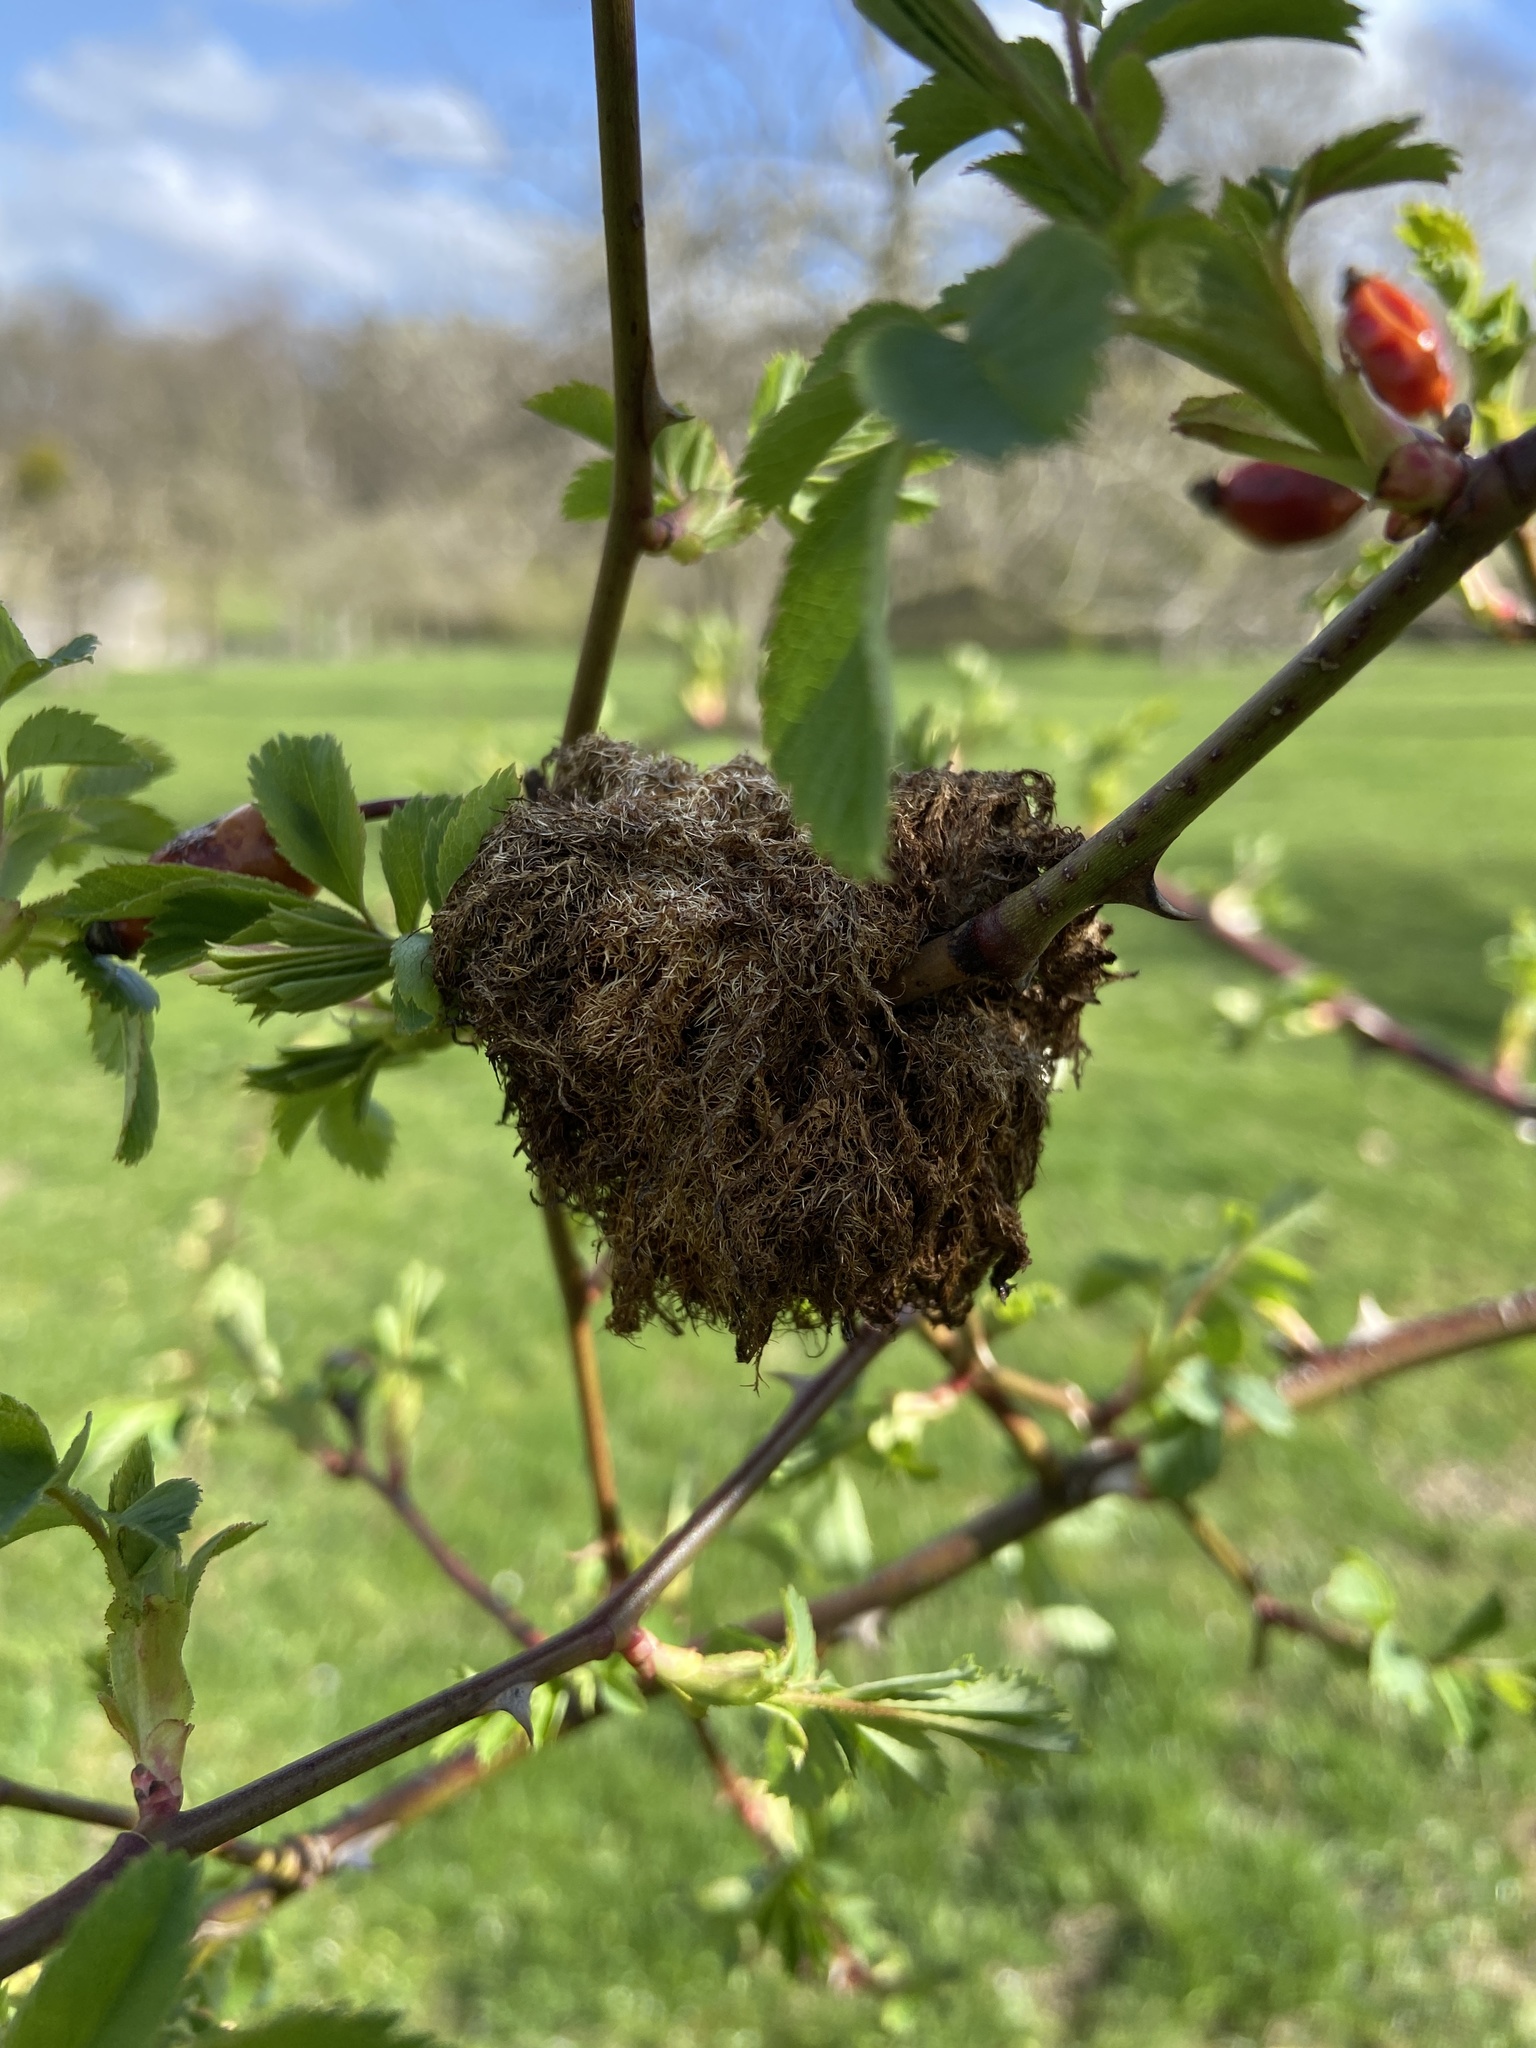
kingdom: Animalia
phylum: Arthropoda
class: Insecta
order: Hymenoptera
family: Cynipidae
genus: Diplolepis
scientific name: Diplolepis rosae
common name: Bedeguar gall
